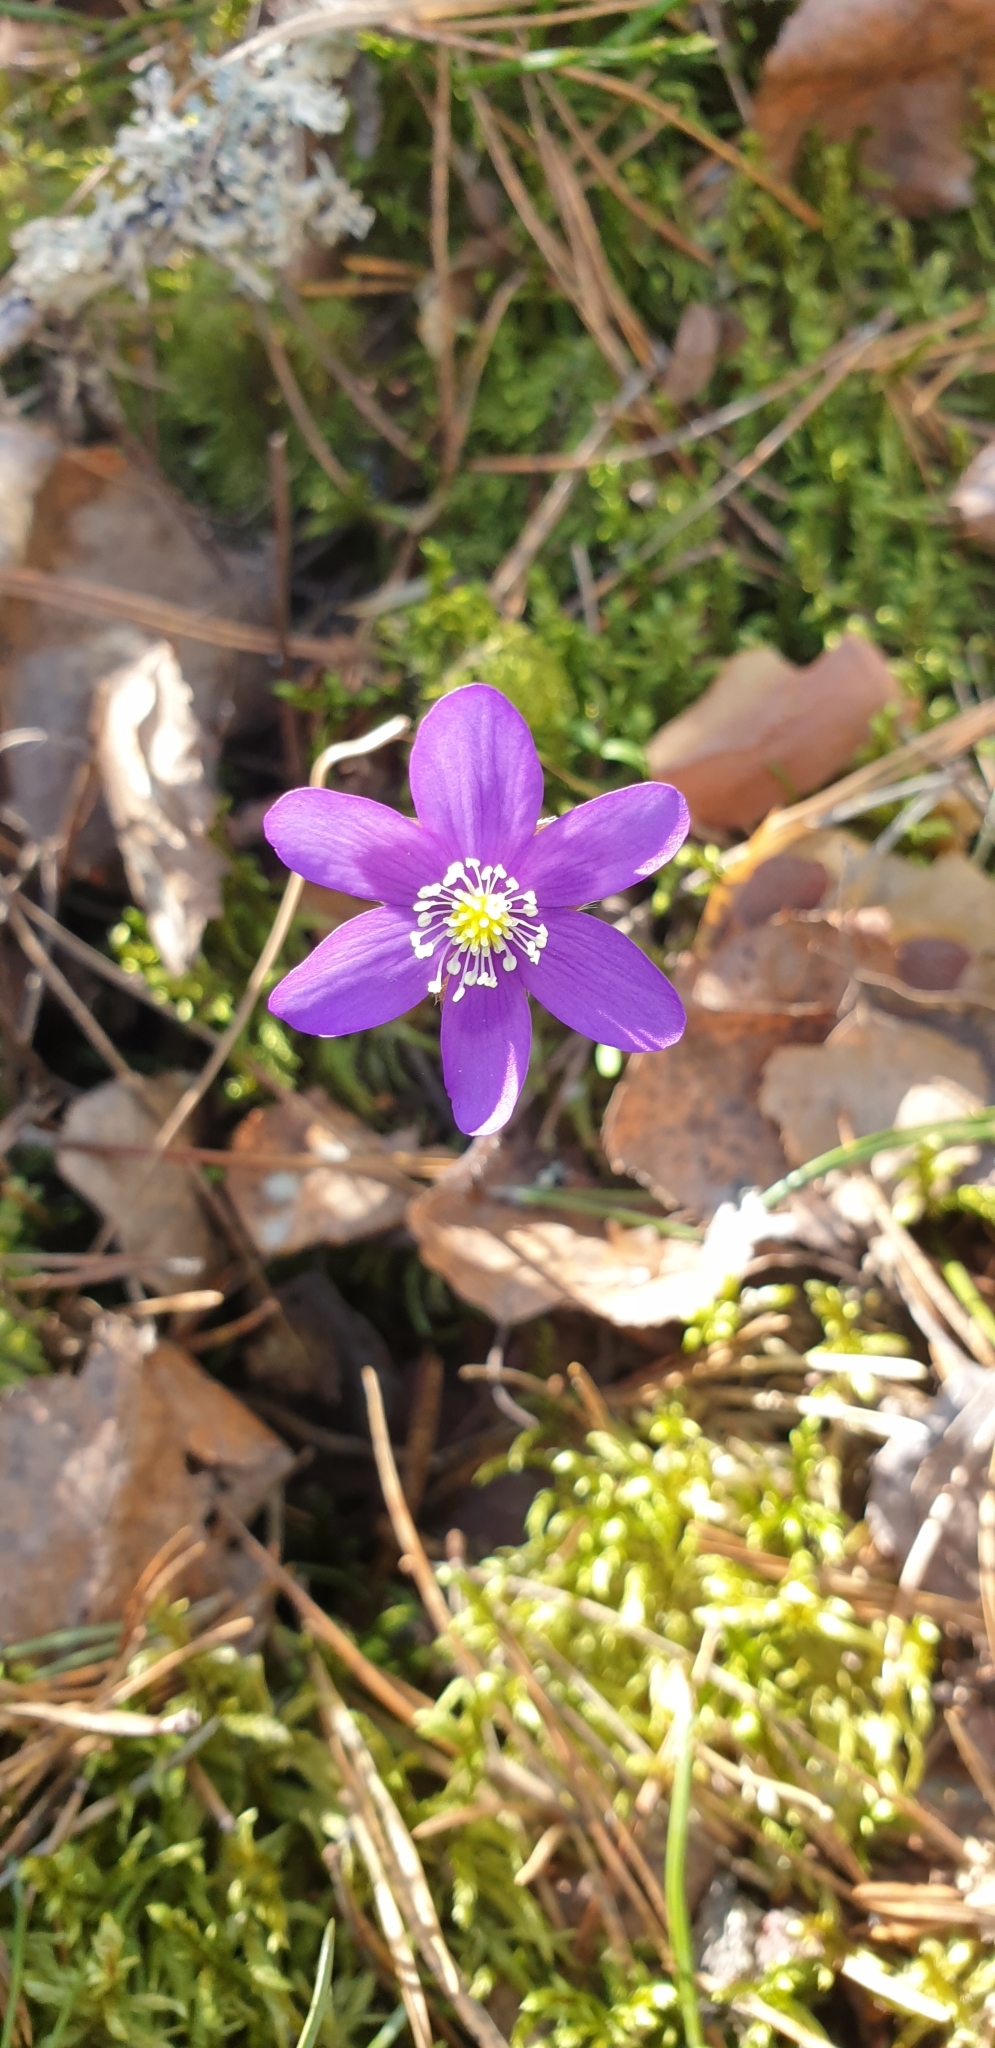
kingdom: Plantae
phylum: Tracheophyta
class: Magnoliopsida
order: Ranunculales
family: Ranunculaceae
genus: Hepatica
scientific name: Hepatica nobilis
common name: Liverleaf
